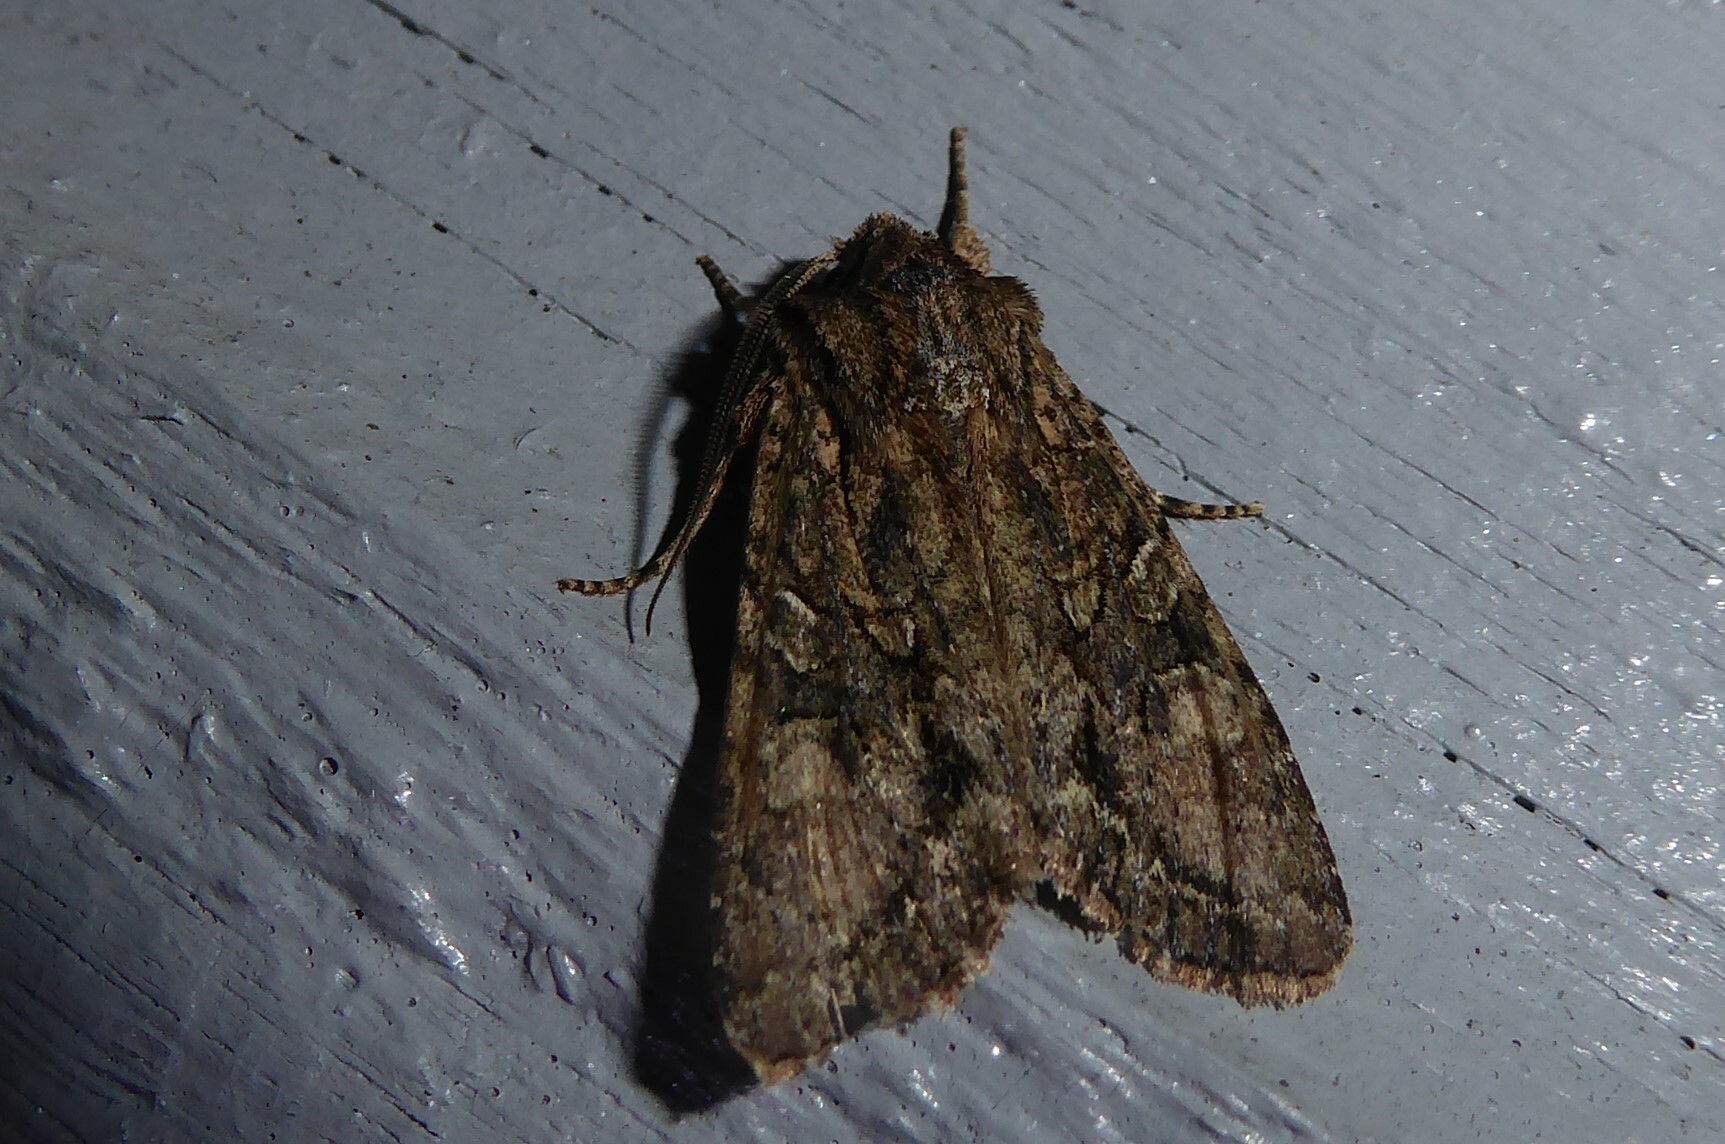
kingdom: Animalia
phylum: Arthropoda
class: Insecta
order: Lepidoptera
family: Noctuidae
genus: Ichneutica
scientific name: Ichneutica mutans
